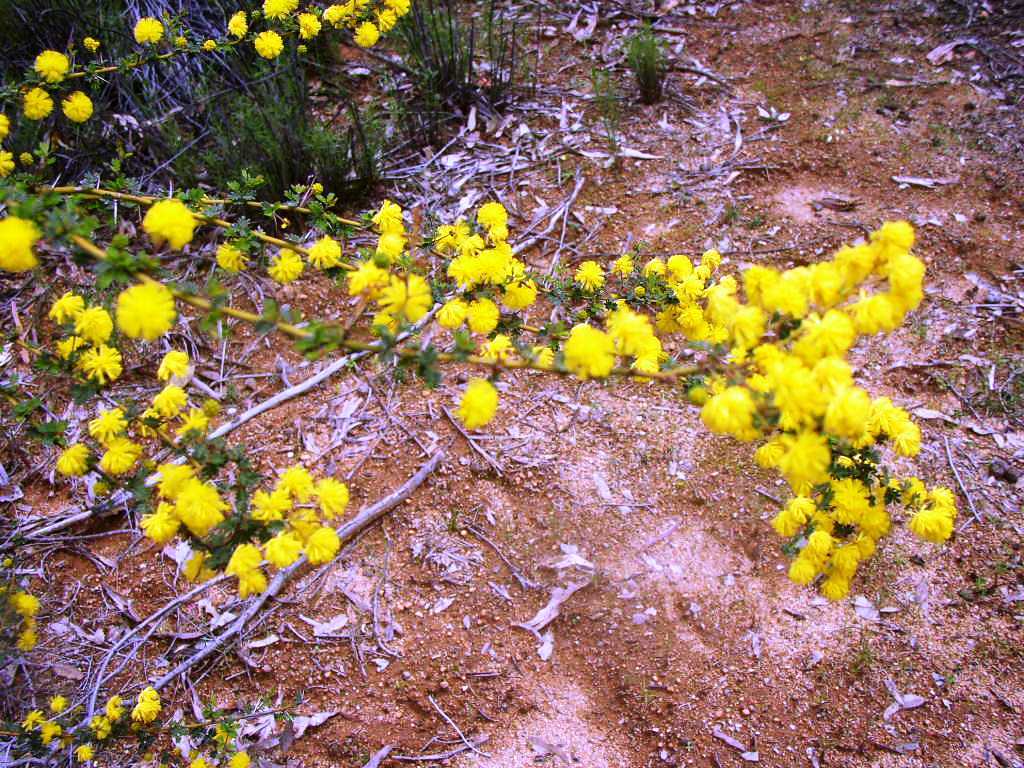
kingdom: Plantae
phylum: Tracheophyta
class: Magnoliopsida
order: Fabales
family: Fabaceae
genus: Acacia
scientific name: Acacia pulchella
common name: Prickly moses
